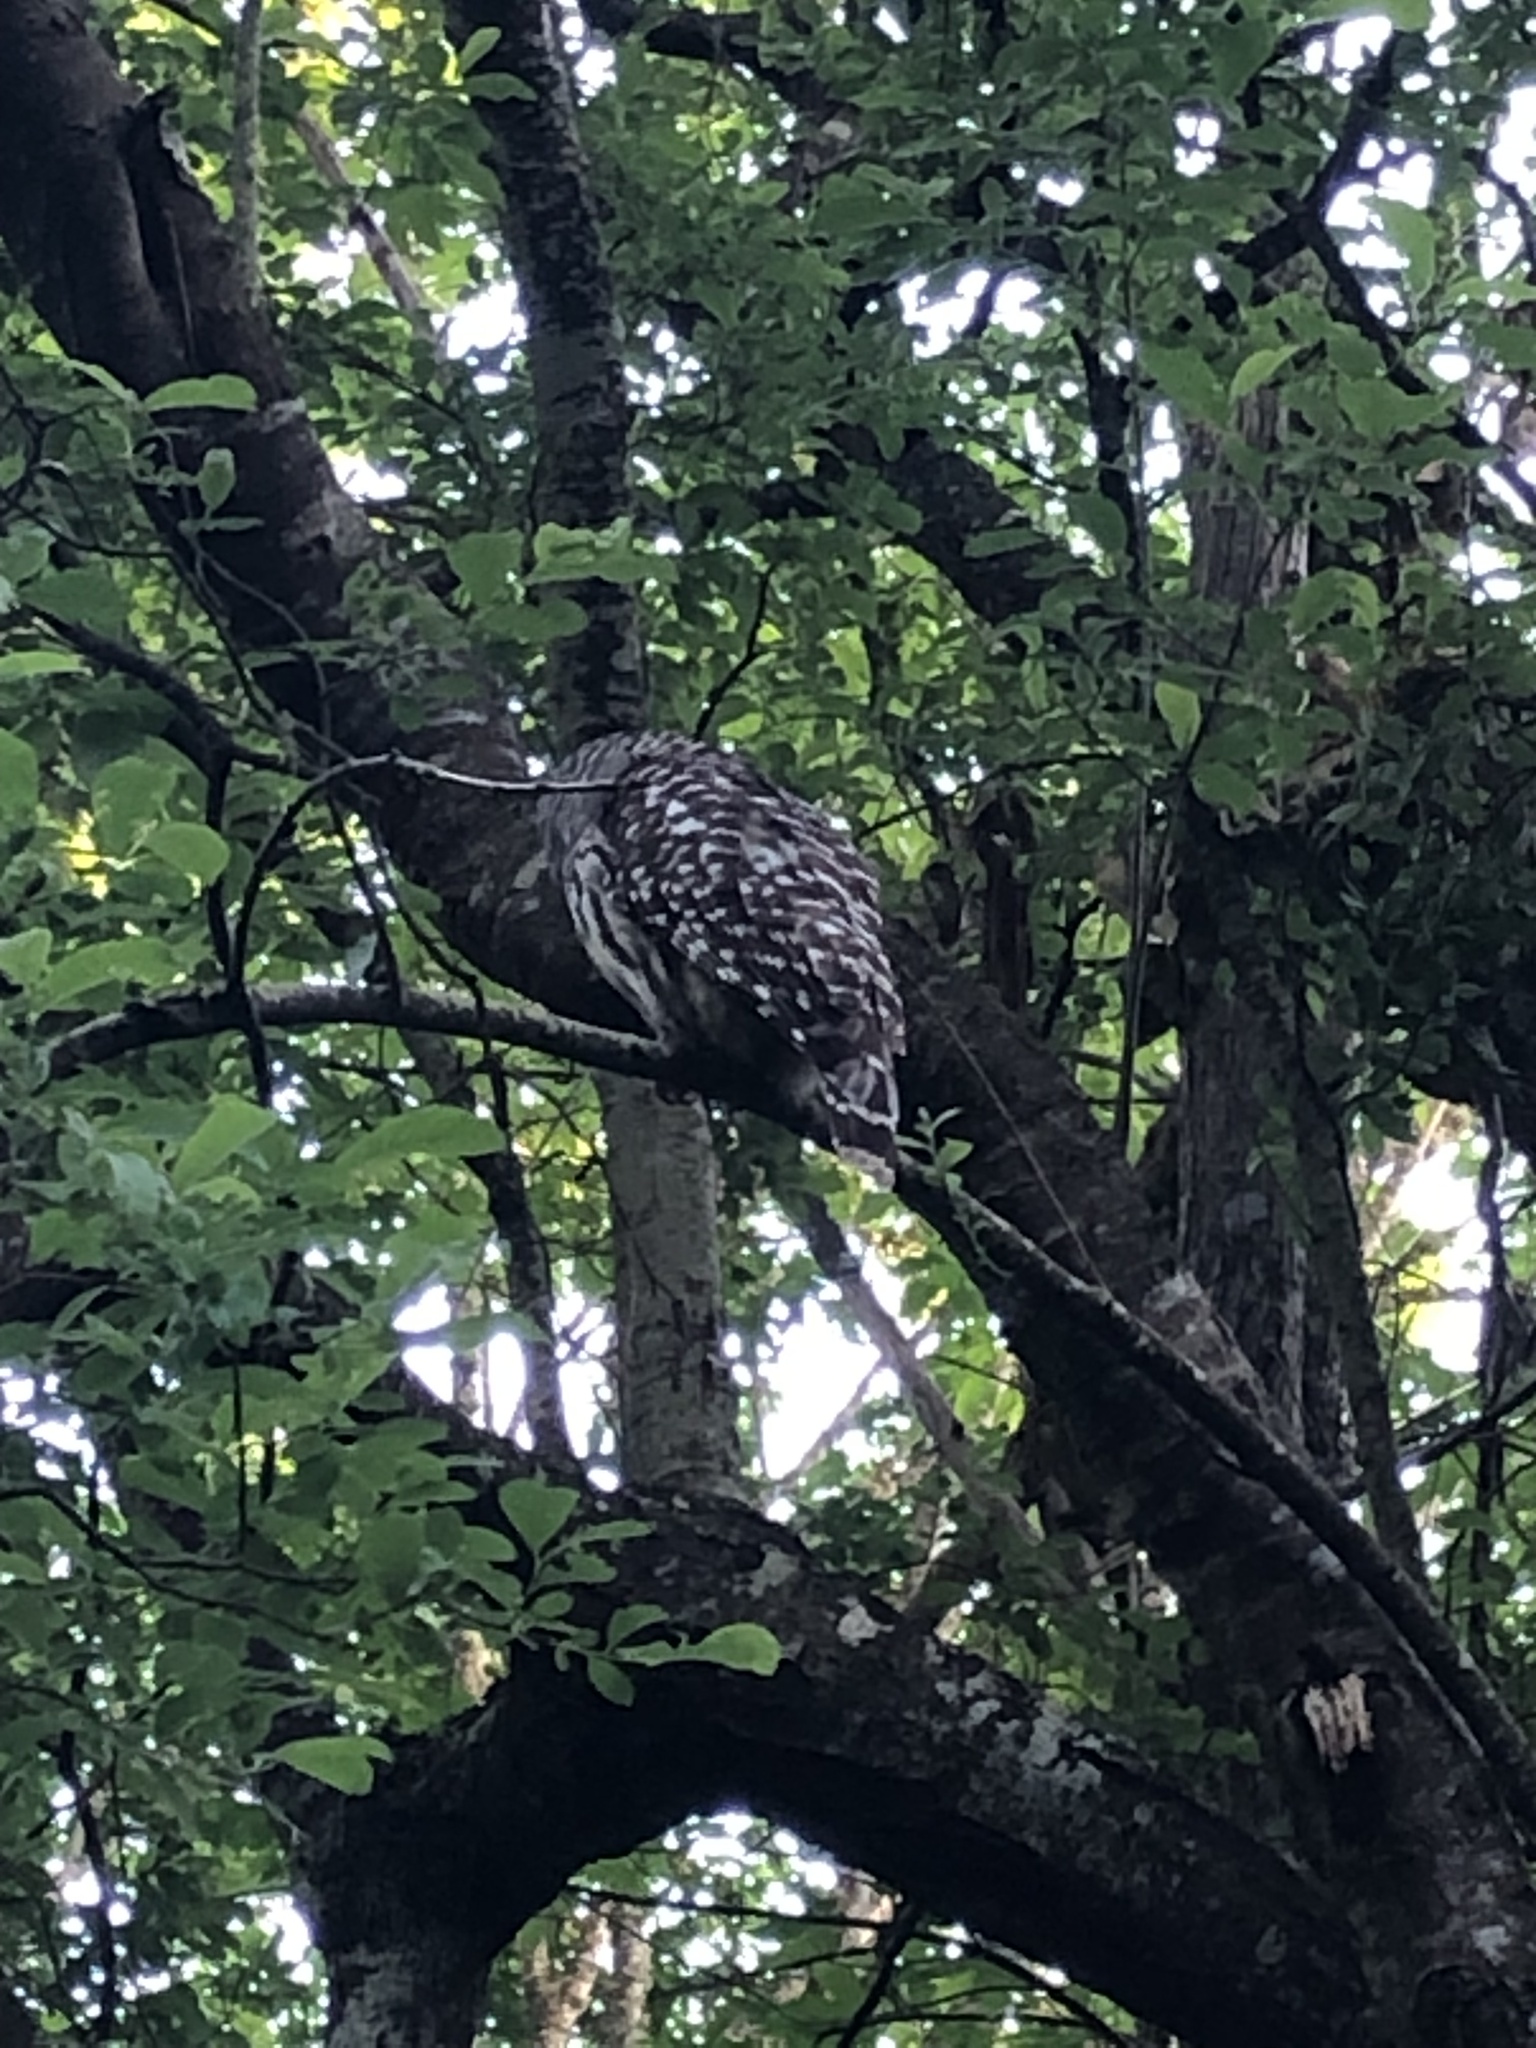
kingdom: Animalia
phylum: Chordata
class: Aves
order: Strigiformes
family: Strigidae
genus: Strix
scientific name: Strix varia
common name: Barred owl
